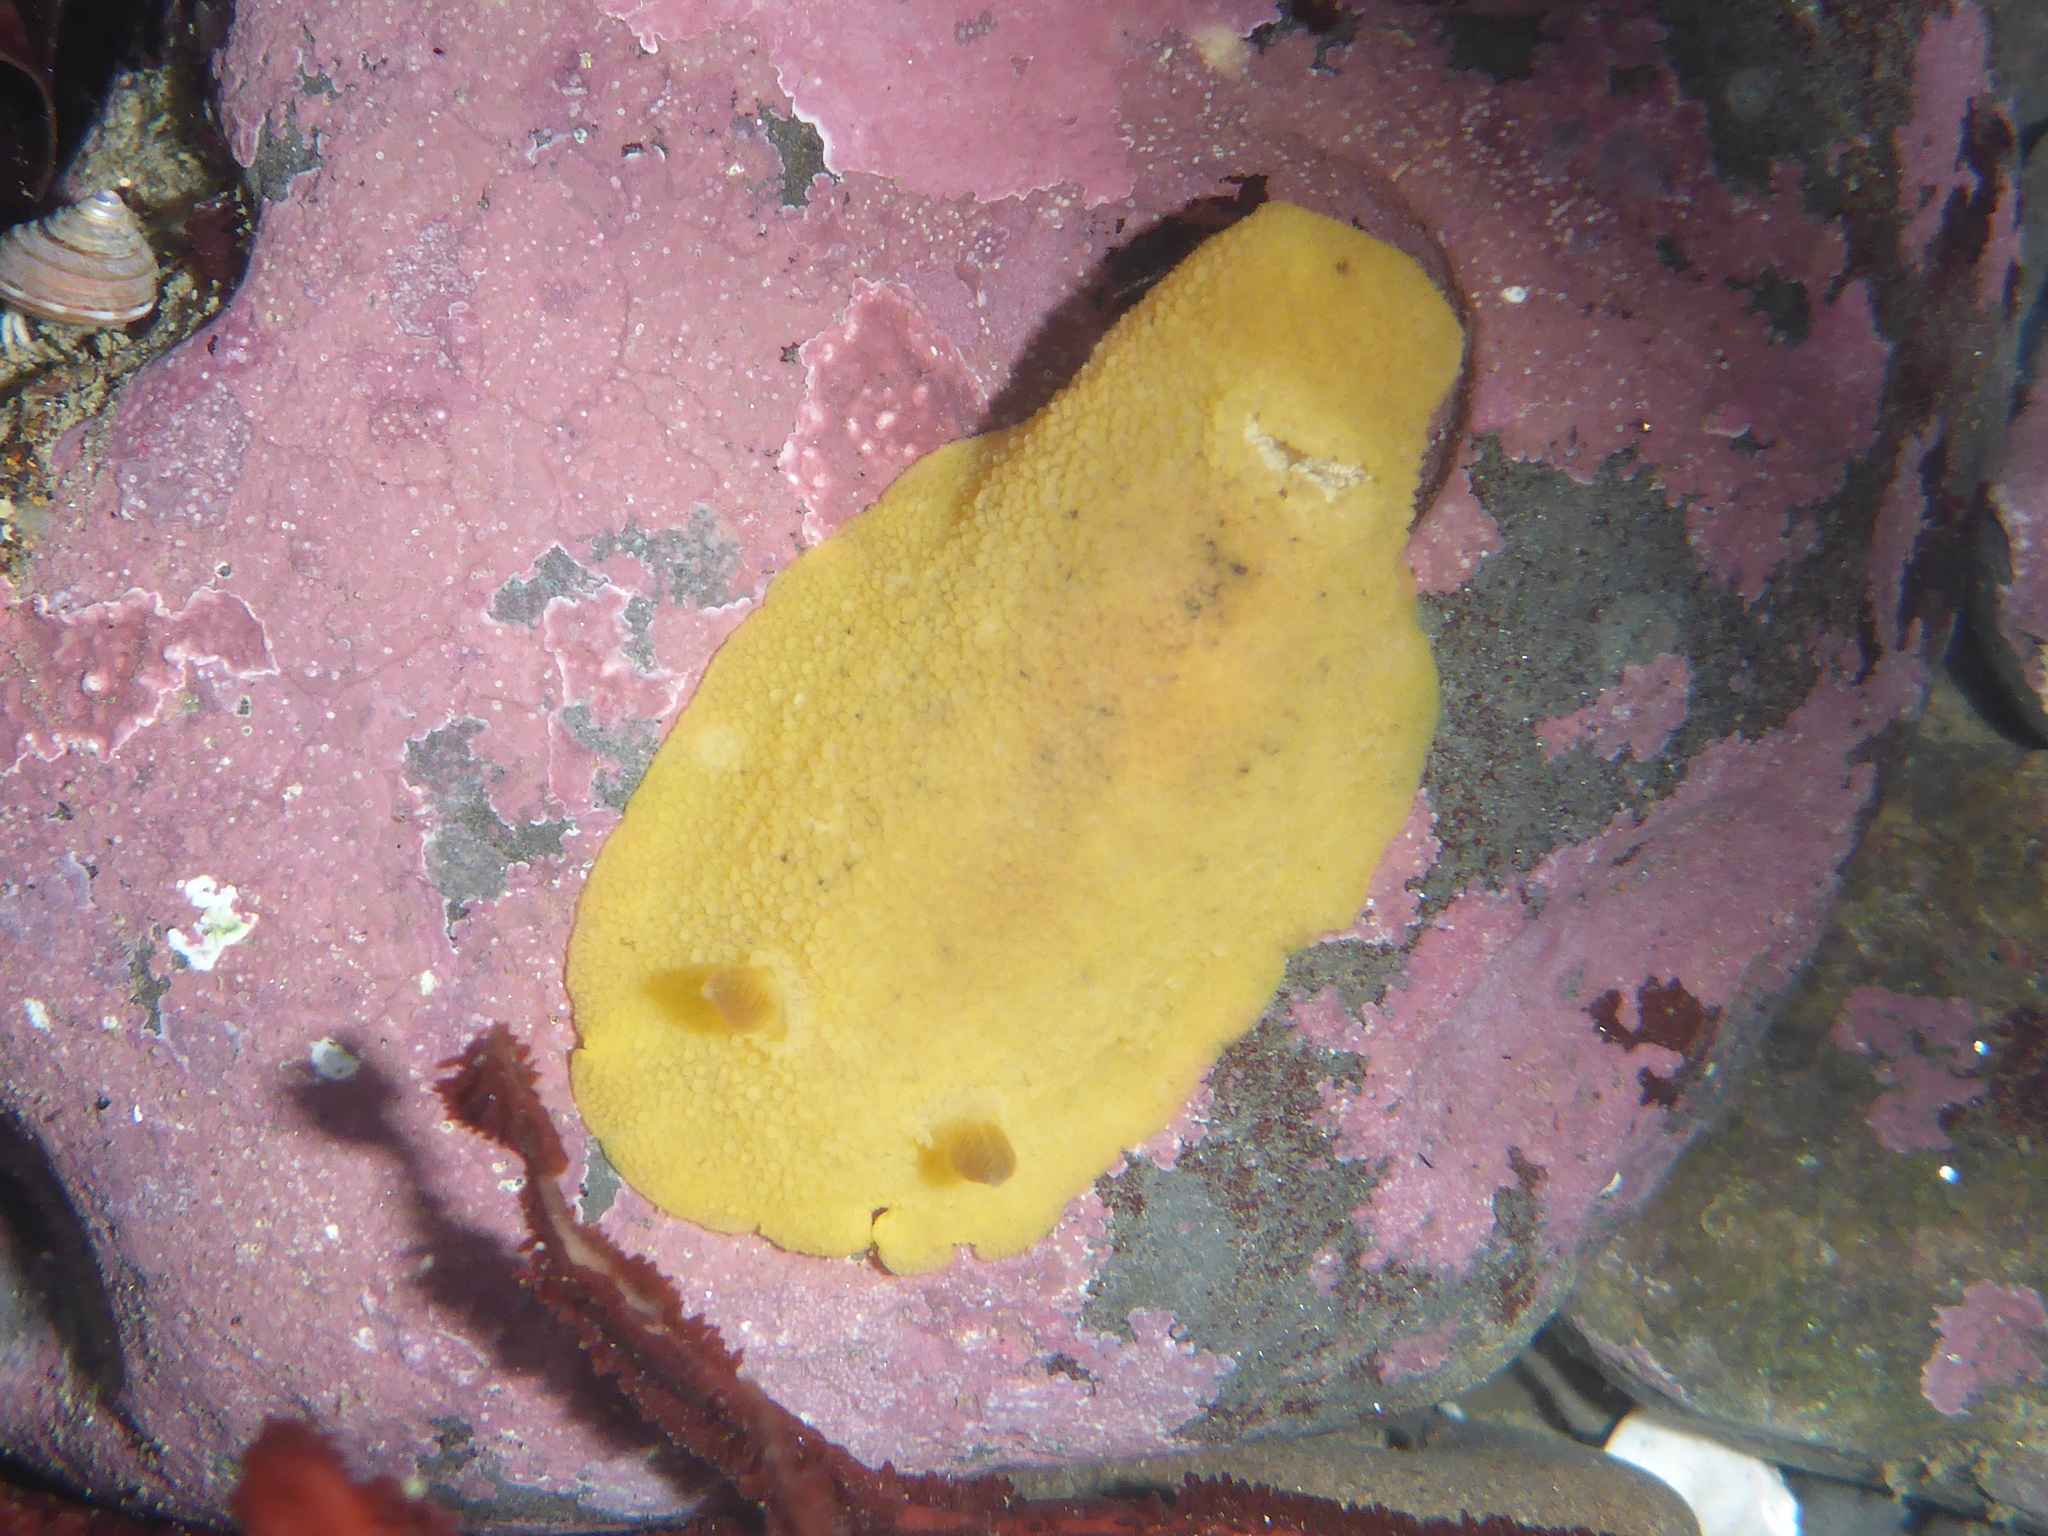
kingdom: Animalia
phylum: Mollusca
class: Gastropoda
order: Nudibranchia
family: Discodorididae
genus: Geitodoris
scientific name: Geitodoris heathi
